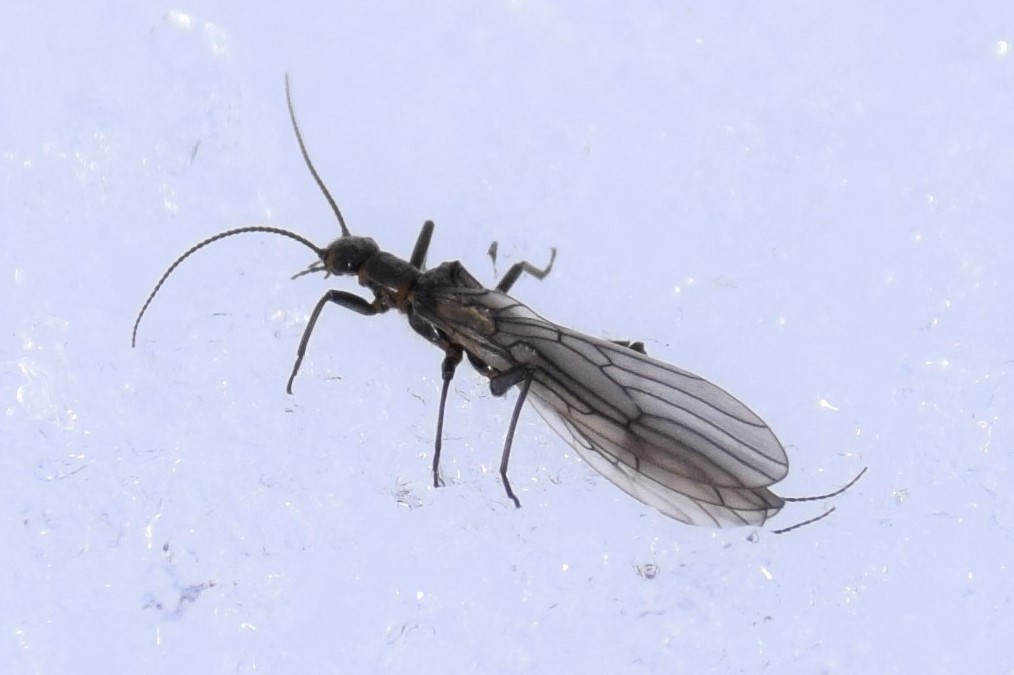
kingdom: Animalia
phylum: Arthropoda
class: Insecta
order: Plecoptera
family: Capniidae
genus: Utacapnia
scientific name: Utacapnia columbiana
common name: Columbian snowfly
